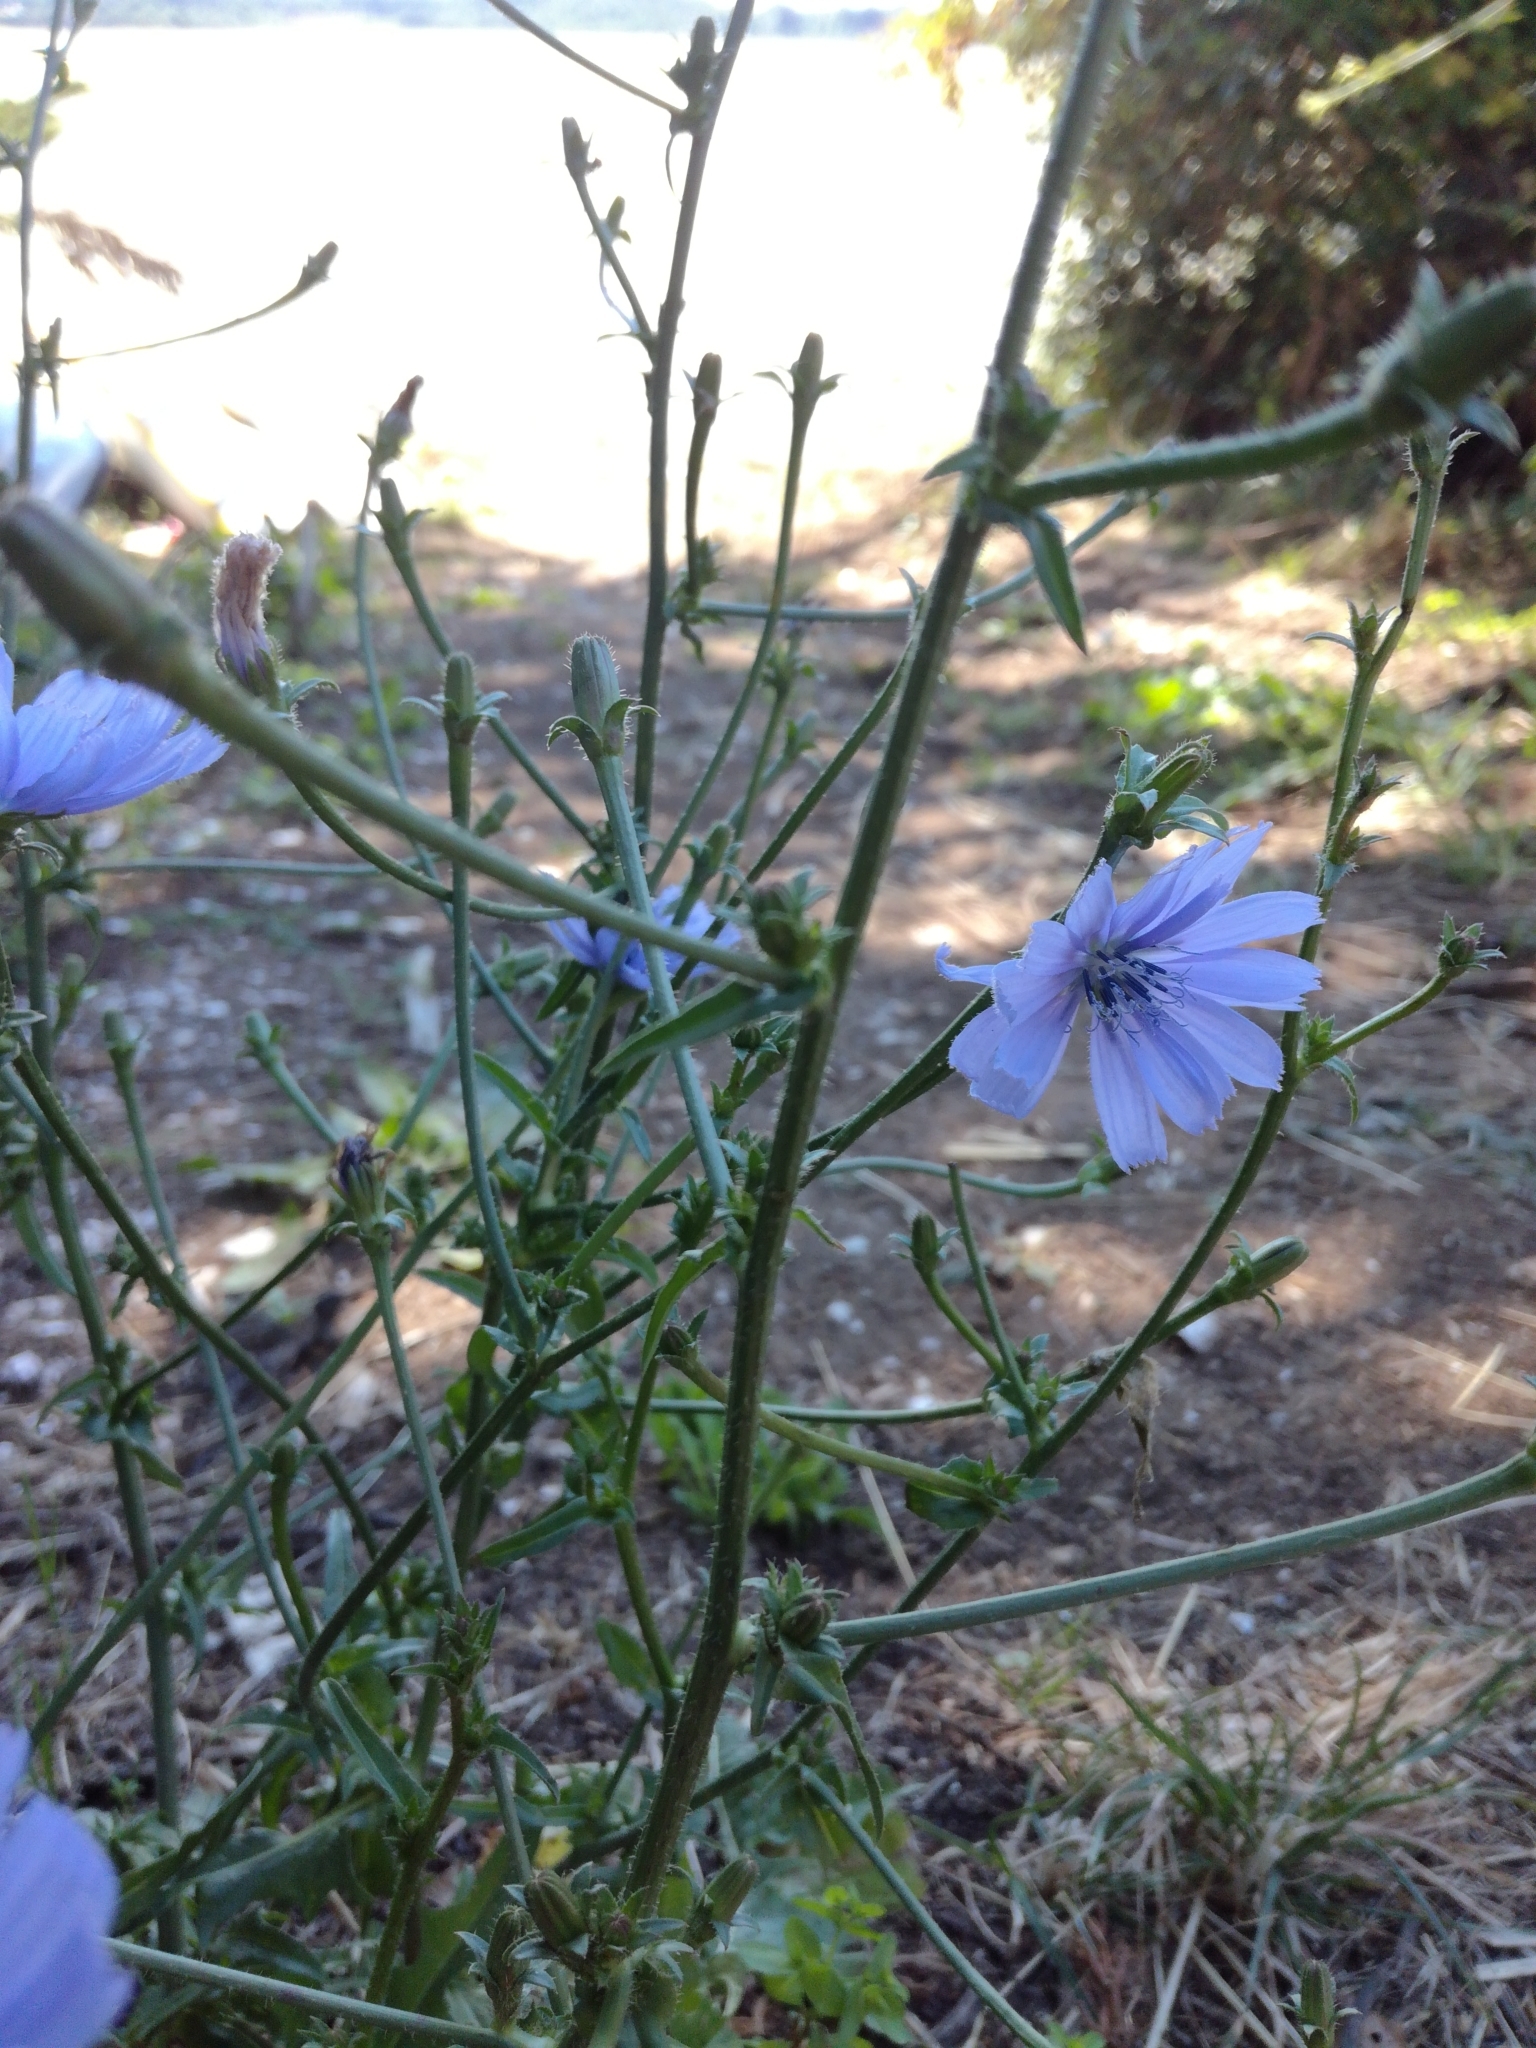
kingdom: Plantae
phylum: Tracheophyta
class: Magnoliopsida
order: Asterales
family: Asteraceae
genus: Cichorium
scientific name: Cichorium intybus
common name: Chicory
